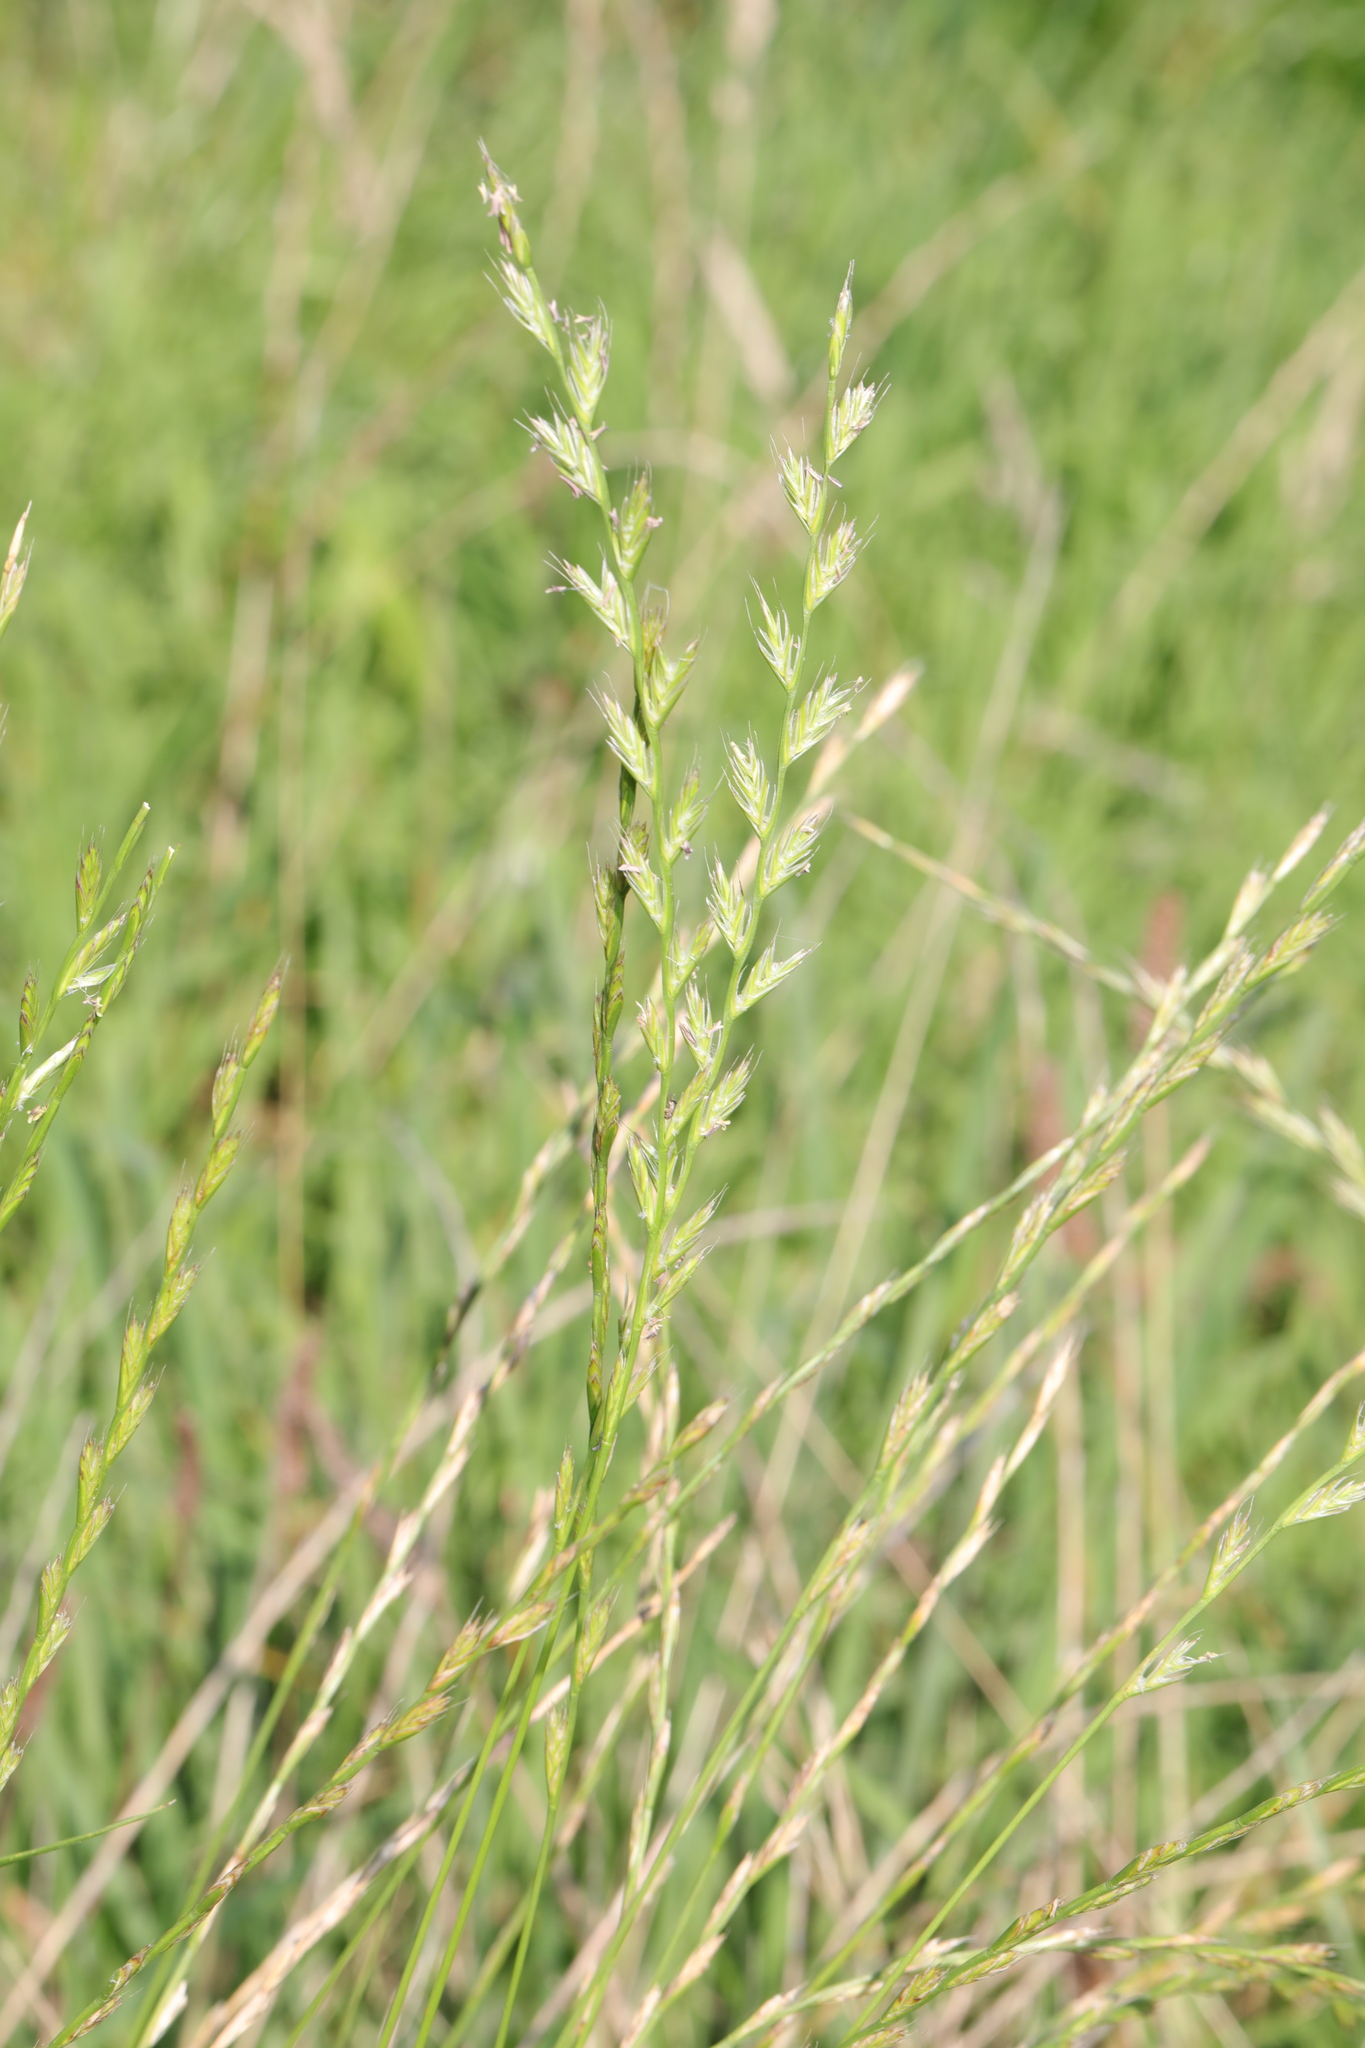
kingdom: Plantae
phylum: Tracheophyta
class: Liliopsida
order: Poales
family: Poaceae
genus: Lolium
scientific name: Lolium multiflorum
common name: Annual ryegrass
